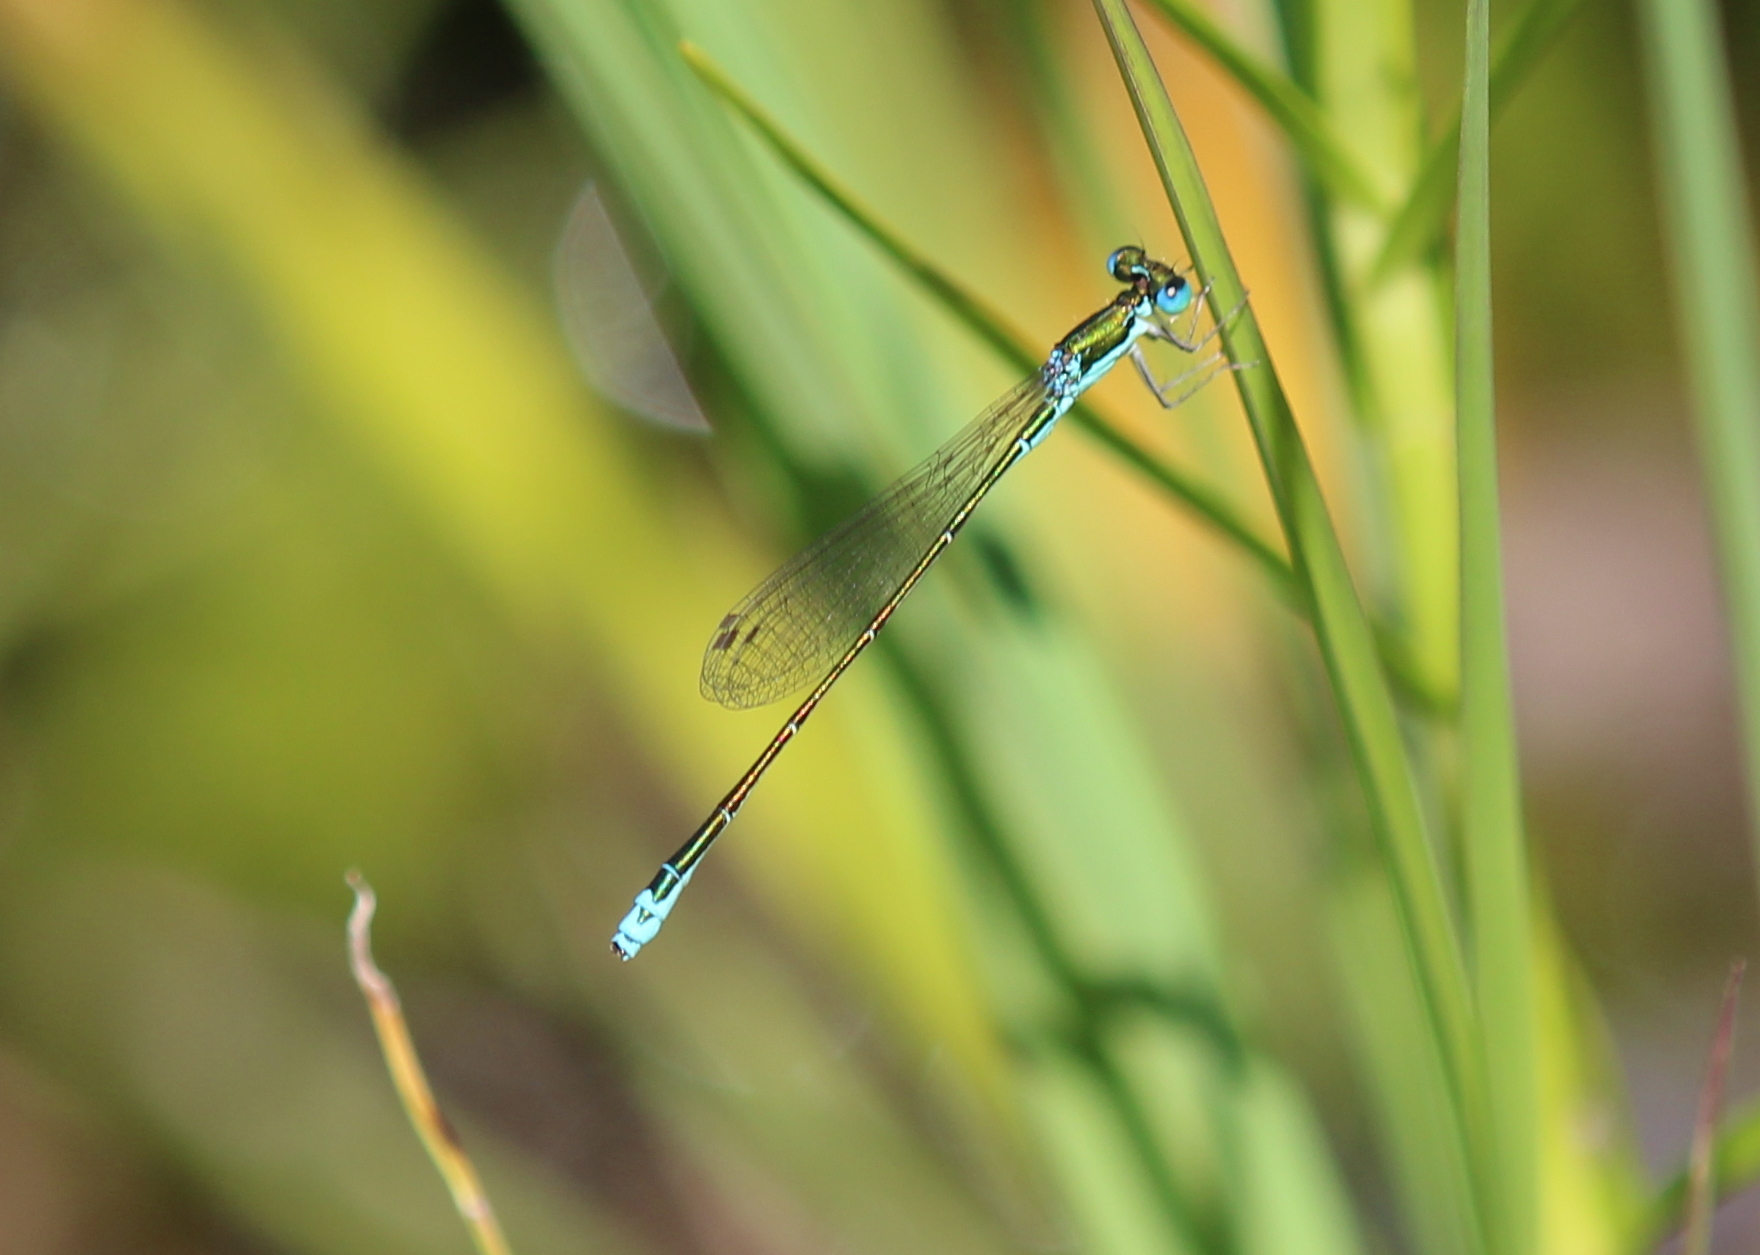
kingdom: Animalia
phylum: Arthropoda
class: Insecta
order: Odonata
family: Coenagrionidae
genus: Nehalennia
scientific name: Nehalennia irene
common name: Sedge sprite
